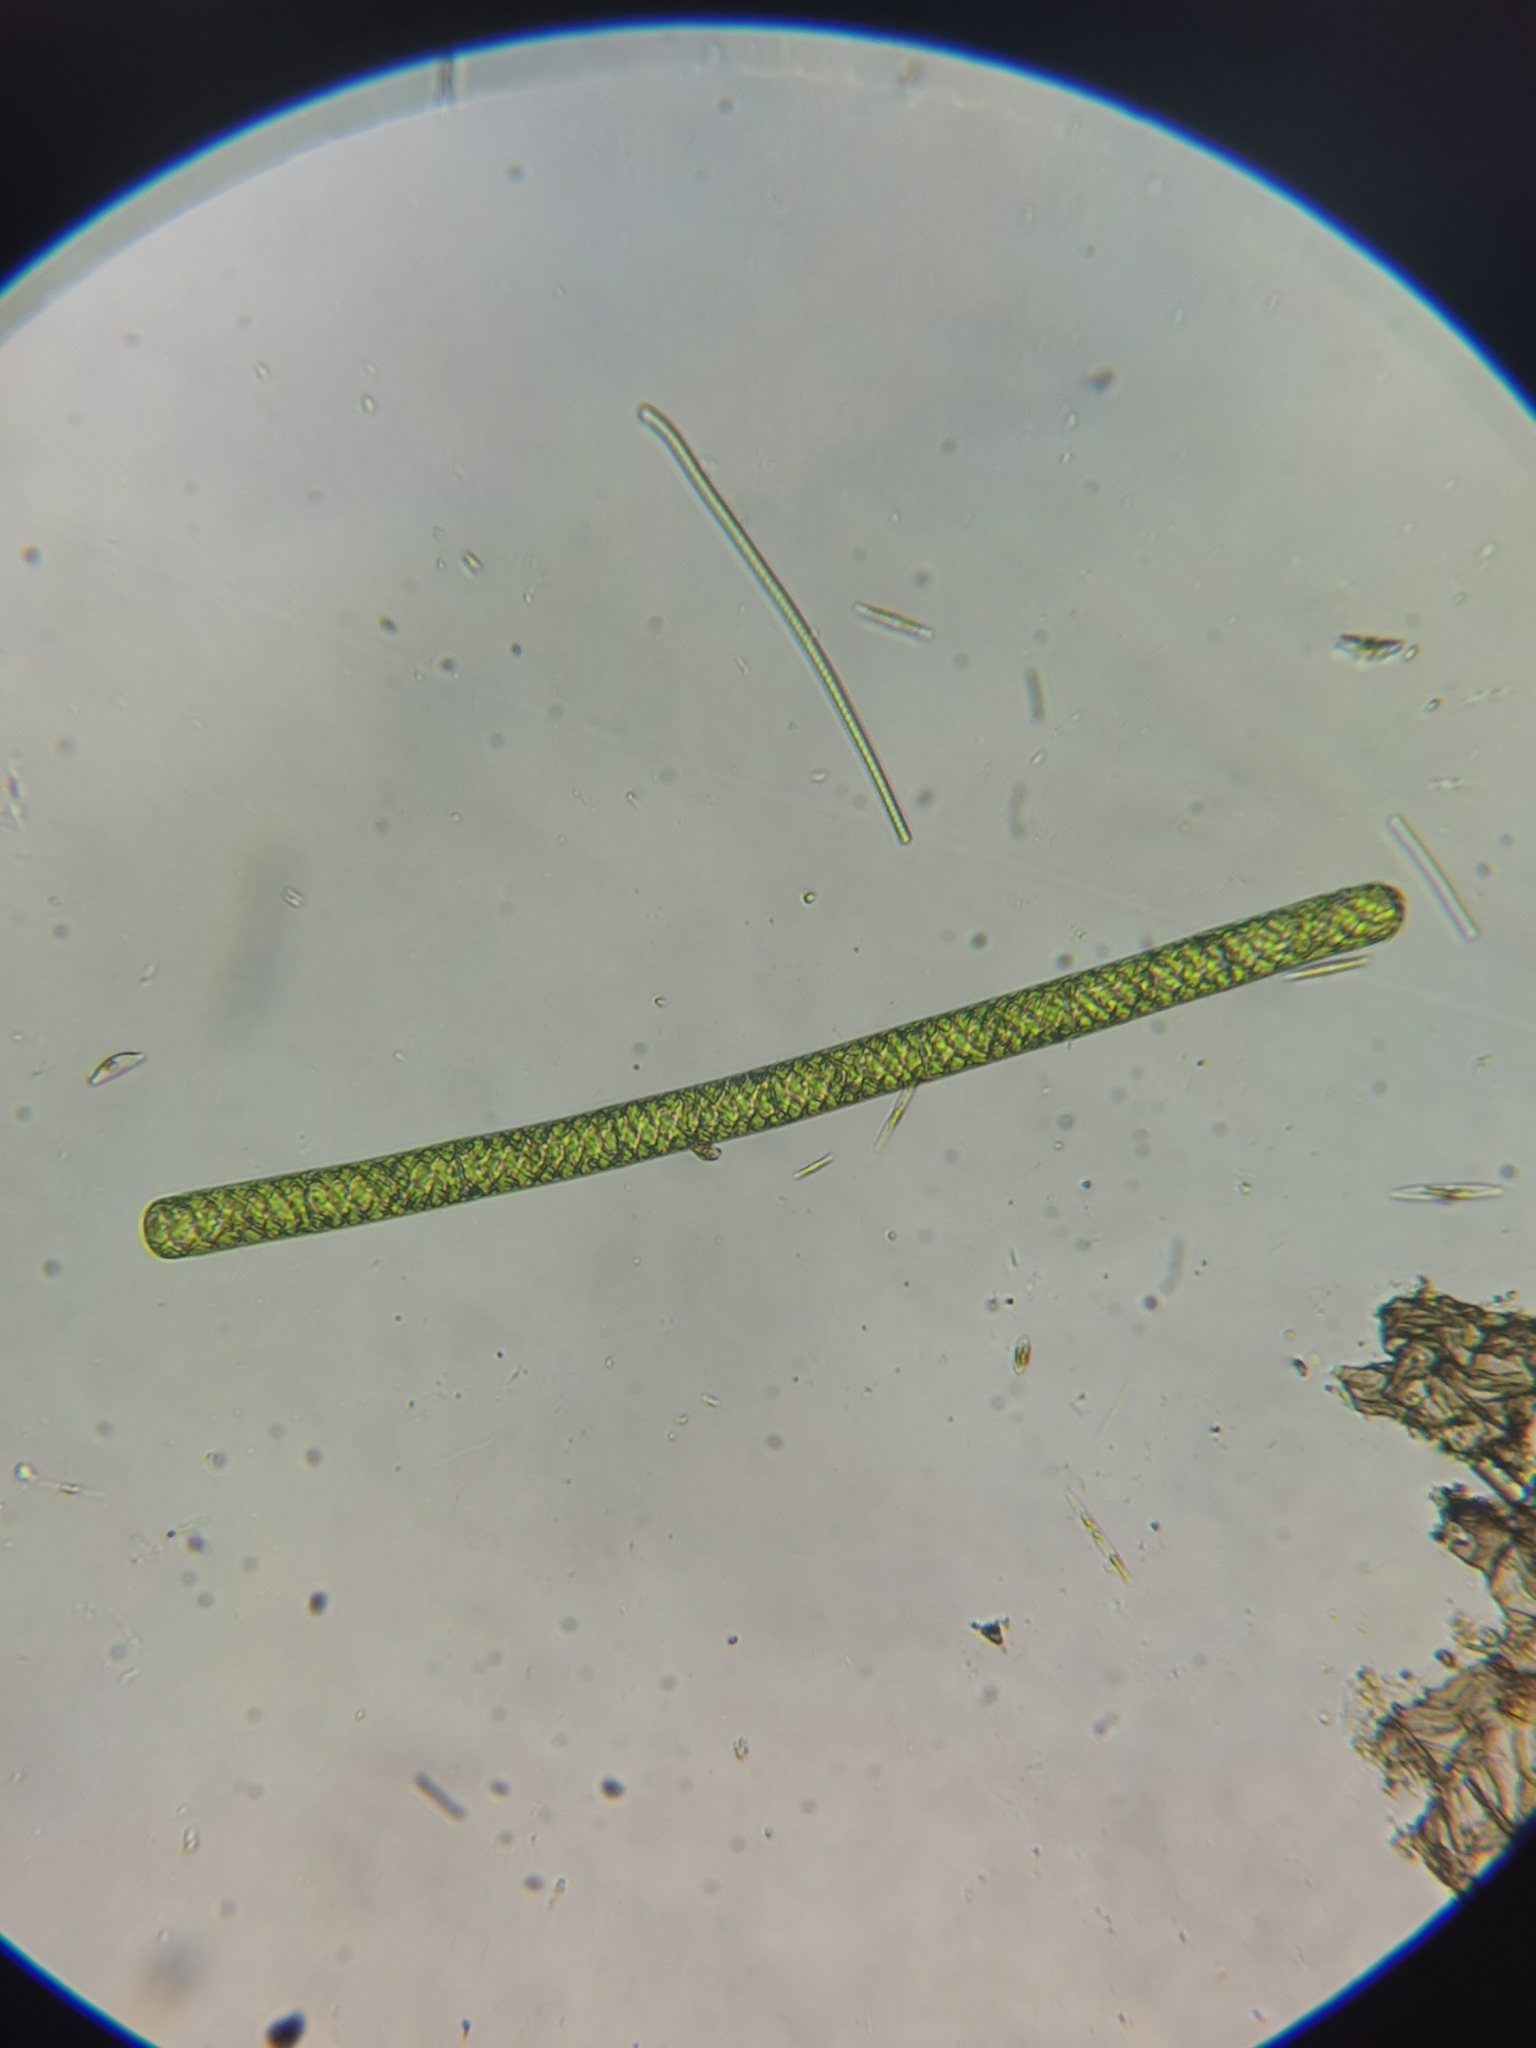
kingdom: Plantae
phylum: Charophyta
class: Zygnematophyceae
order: Zygnematales
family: Zygnemataceae
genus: Spirogyra
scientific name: Spirogyra
